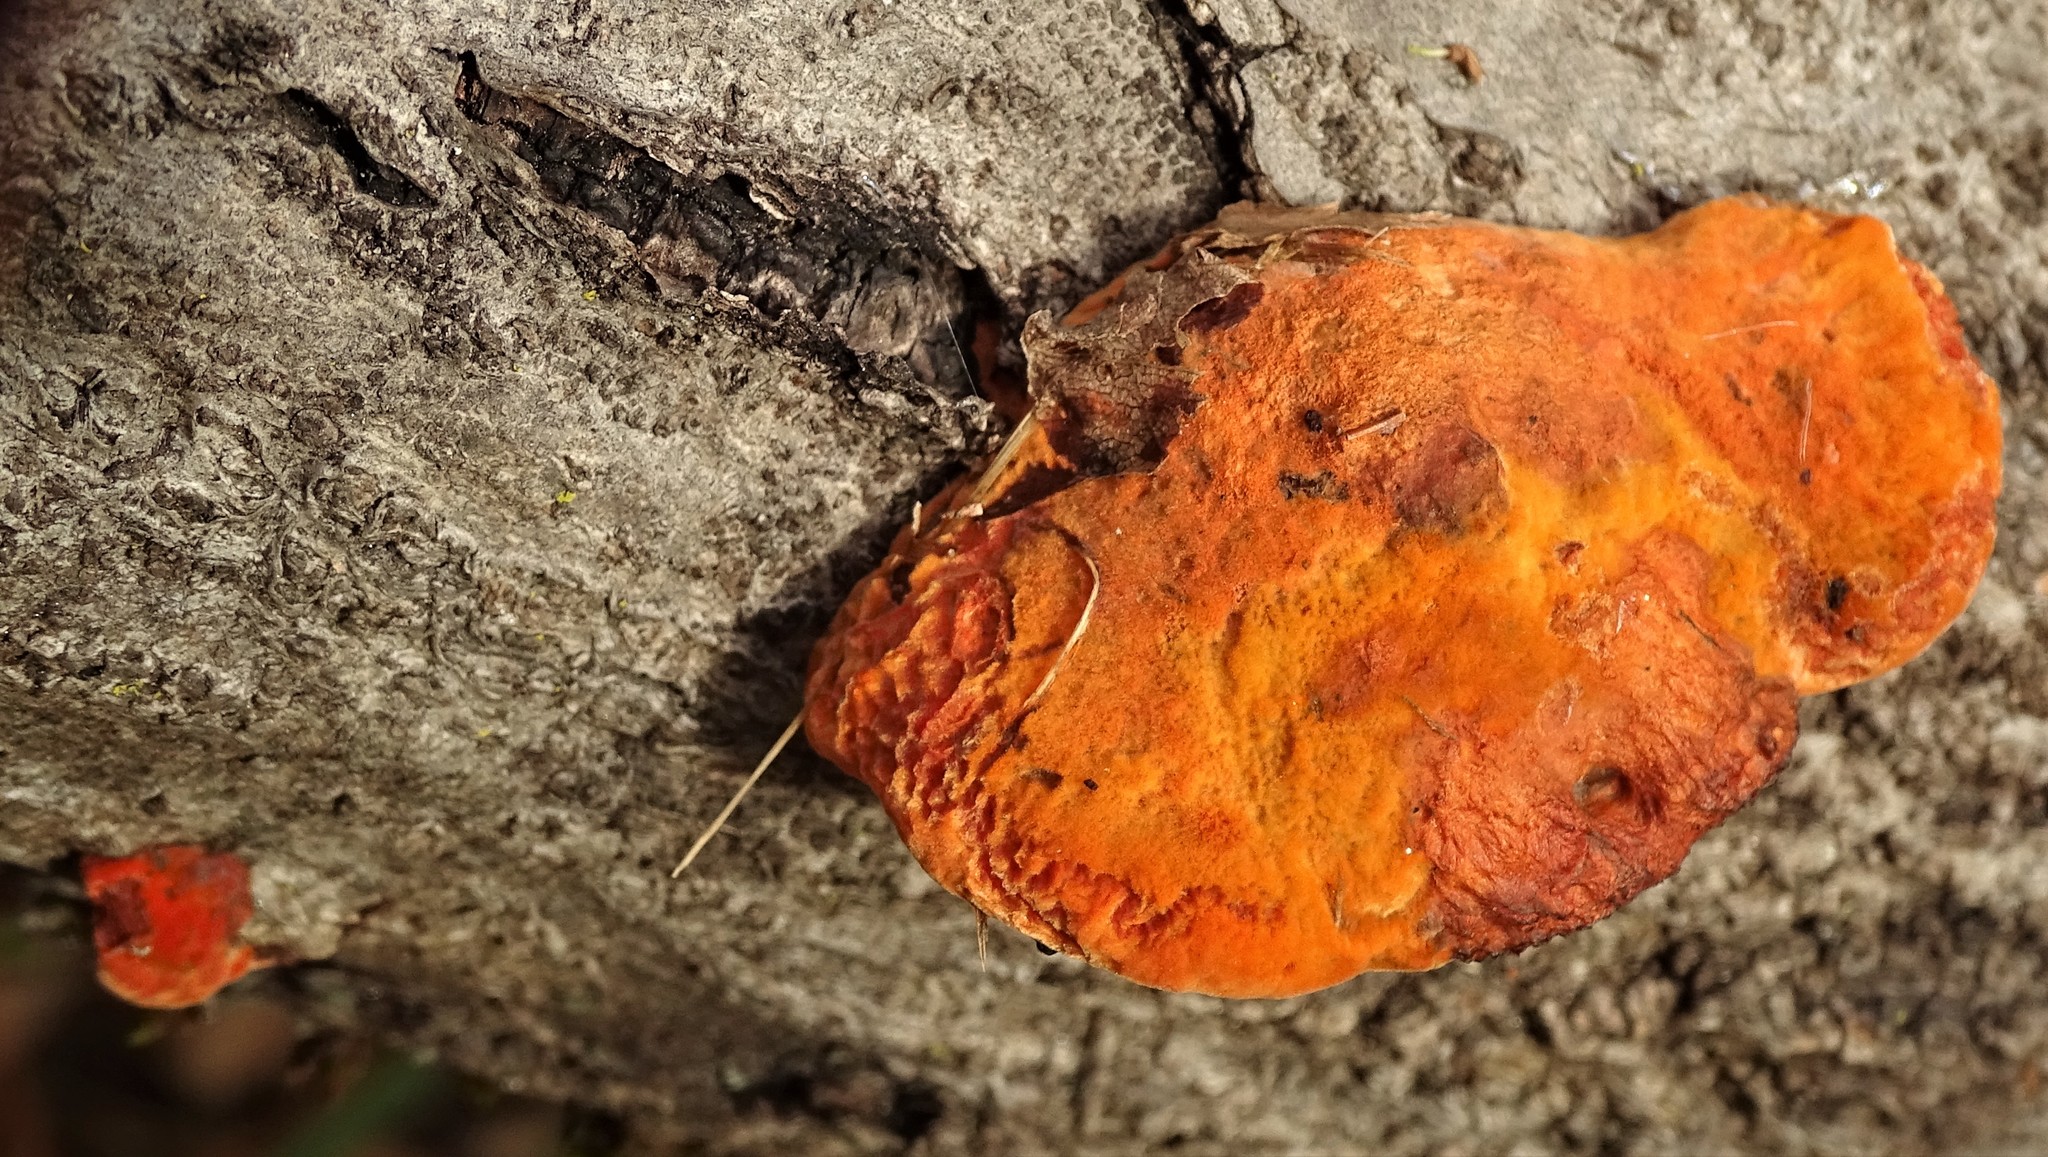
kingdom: Fungi
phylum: Basidiomycota
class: Agaricomycetes
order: Polyporales
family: Polyporaceae
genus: Trametes
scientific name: Trametes cinnabarina
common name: Northern cinnabar polypore
